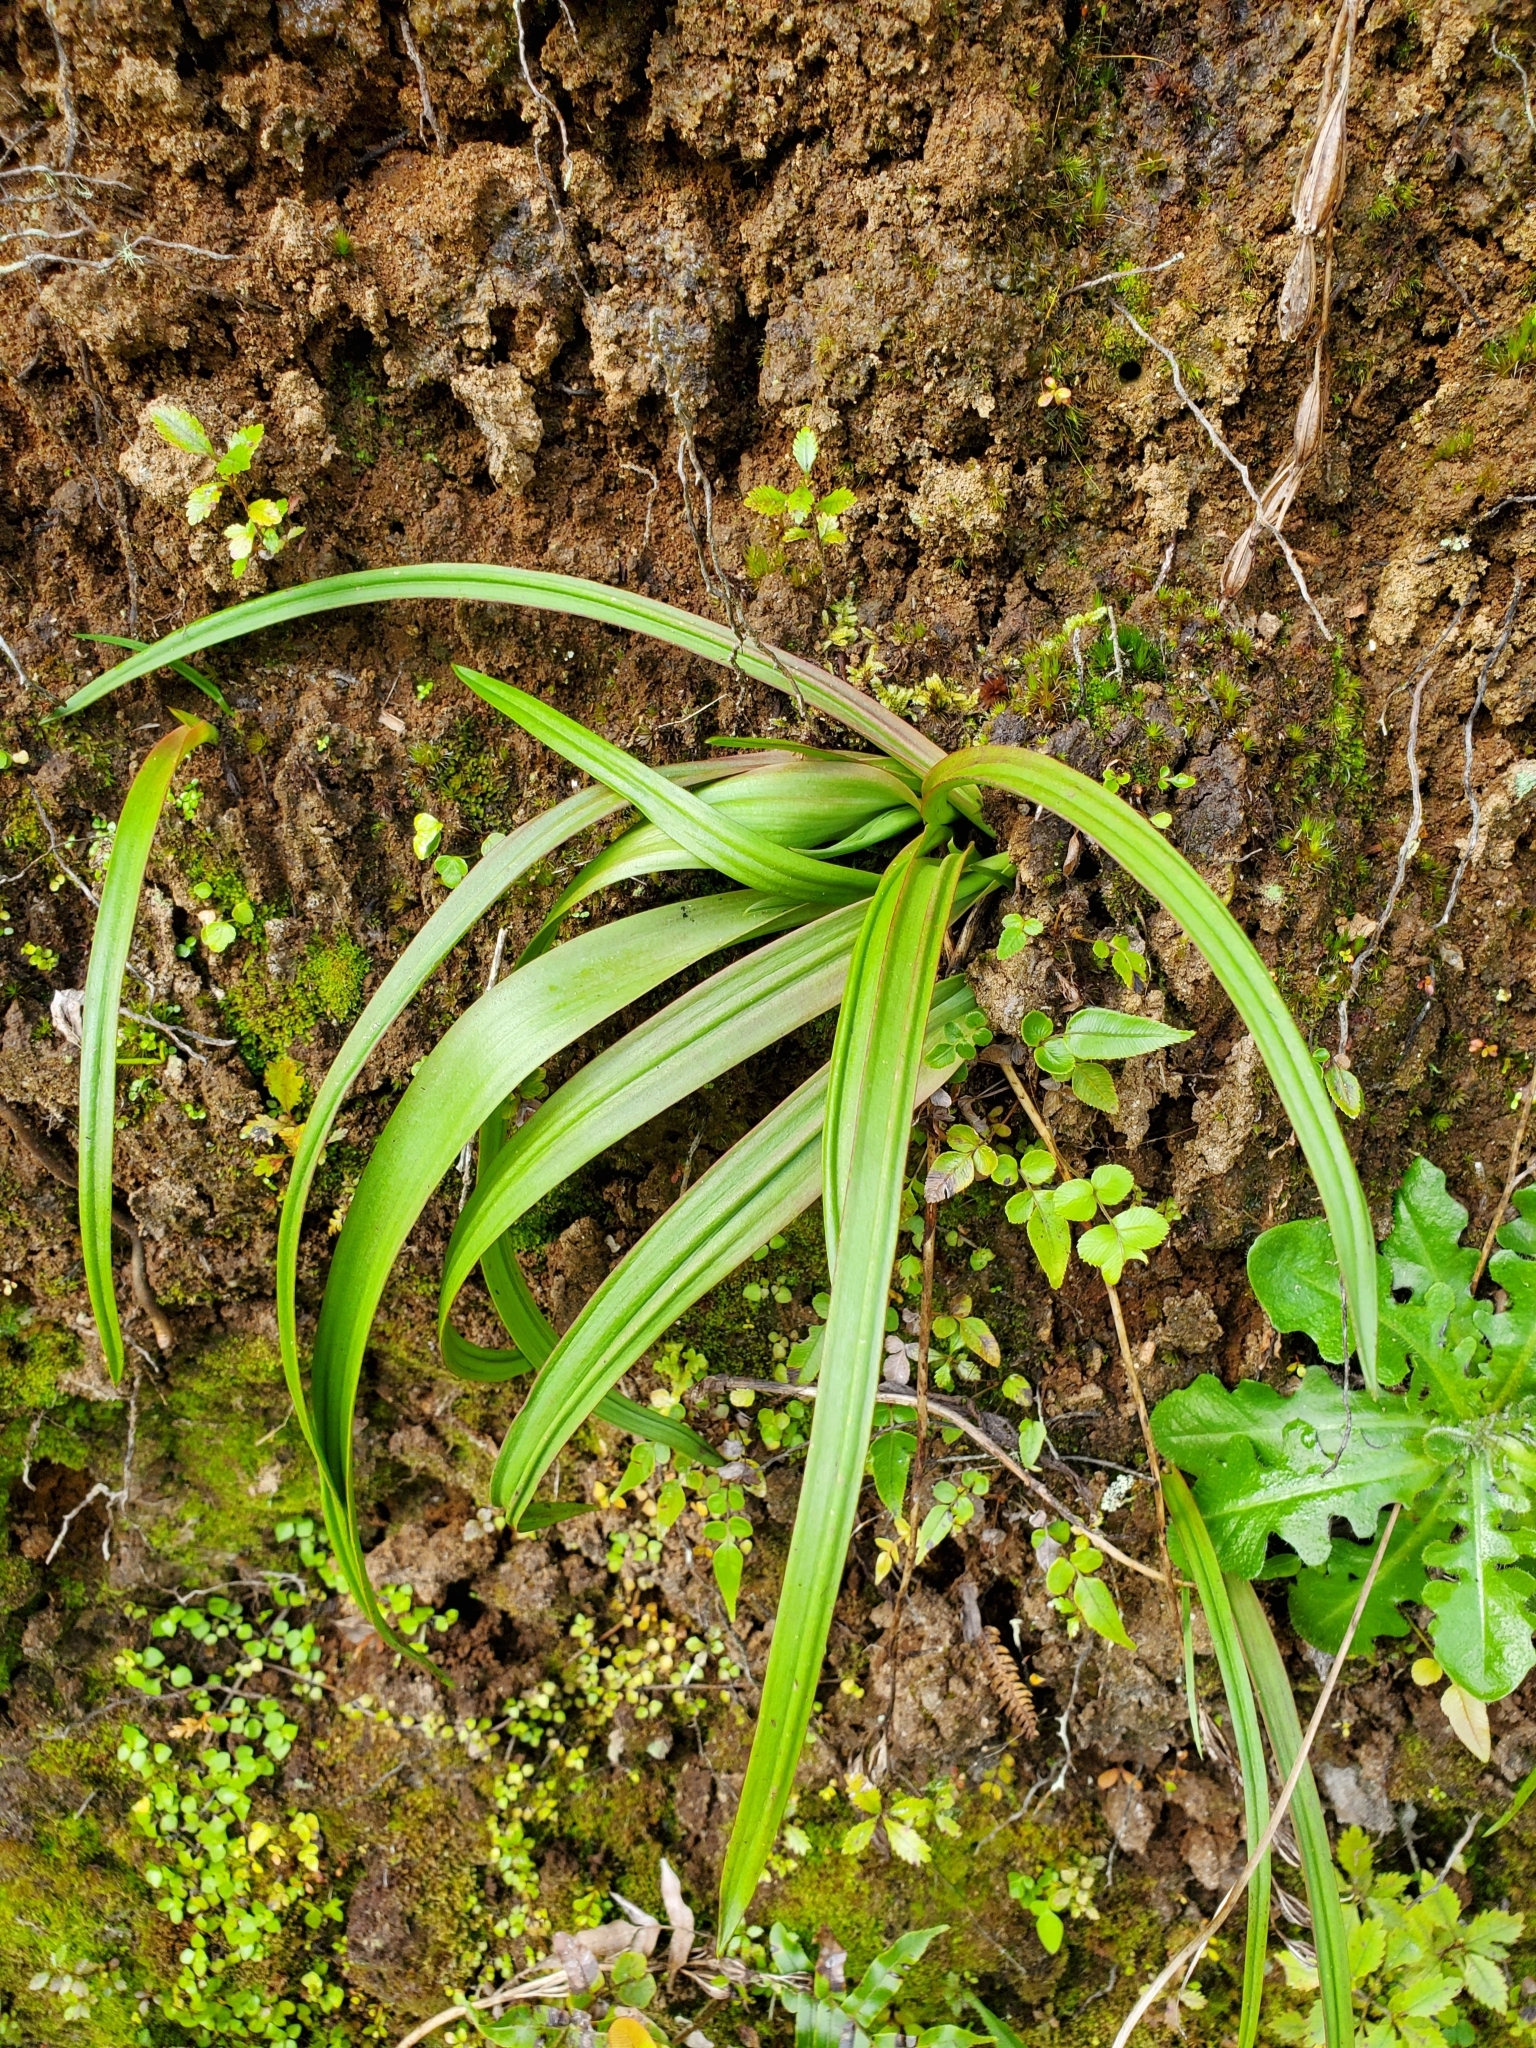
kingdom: Plantae
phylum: Tracheophyta
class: Liliopsida
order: Asparagales
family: Orchidaceae
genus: Thelymitra
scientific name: Thelymitra longifolia
